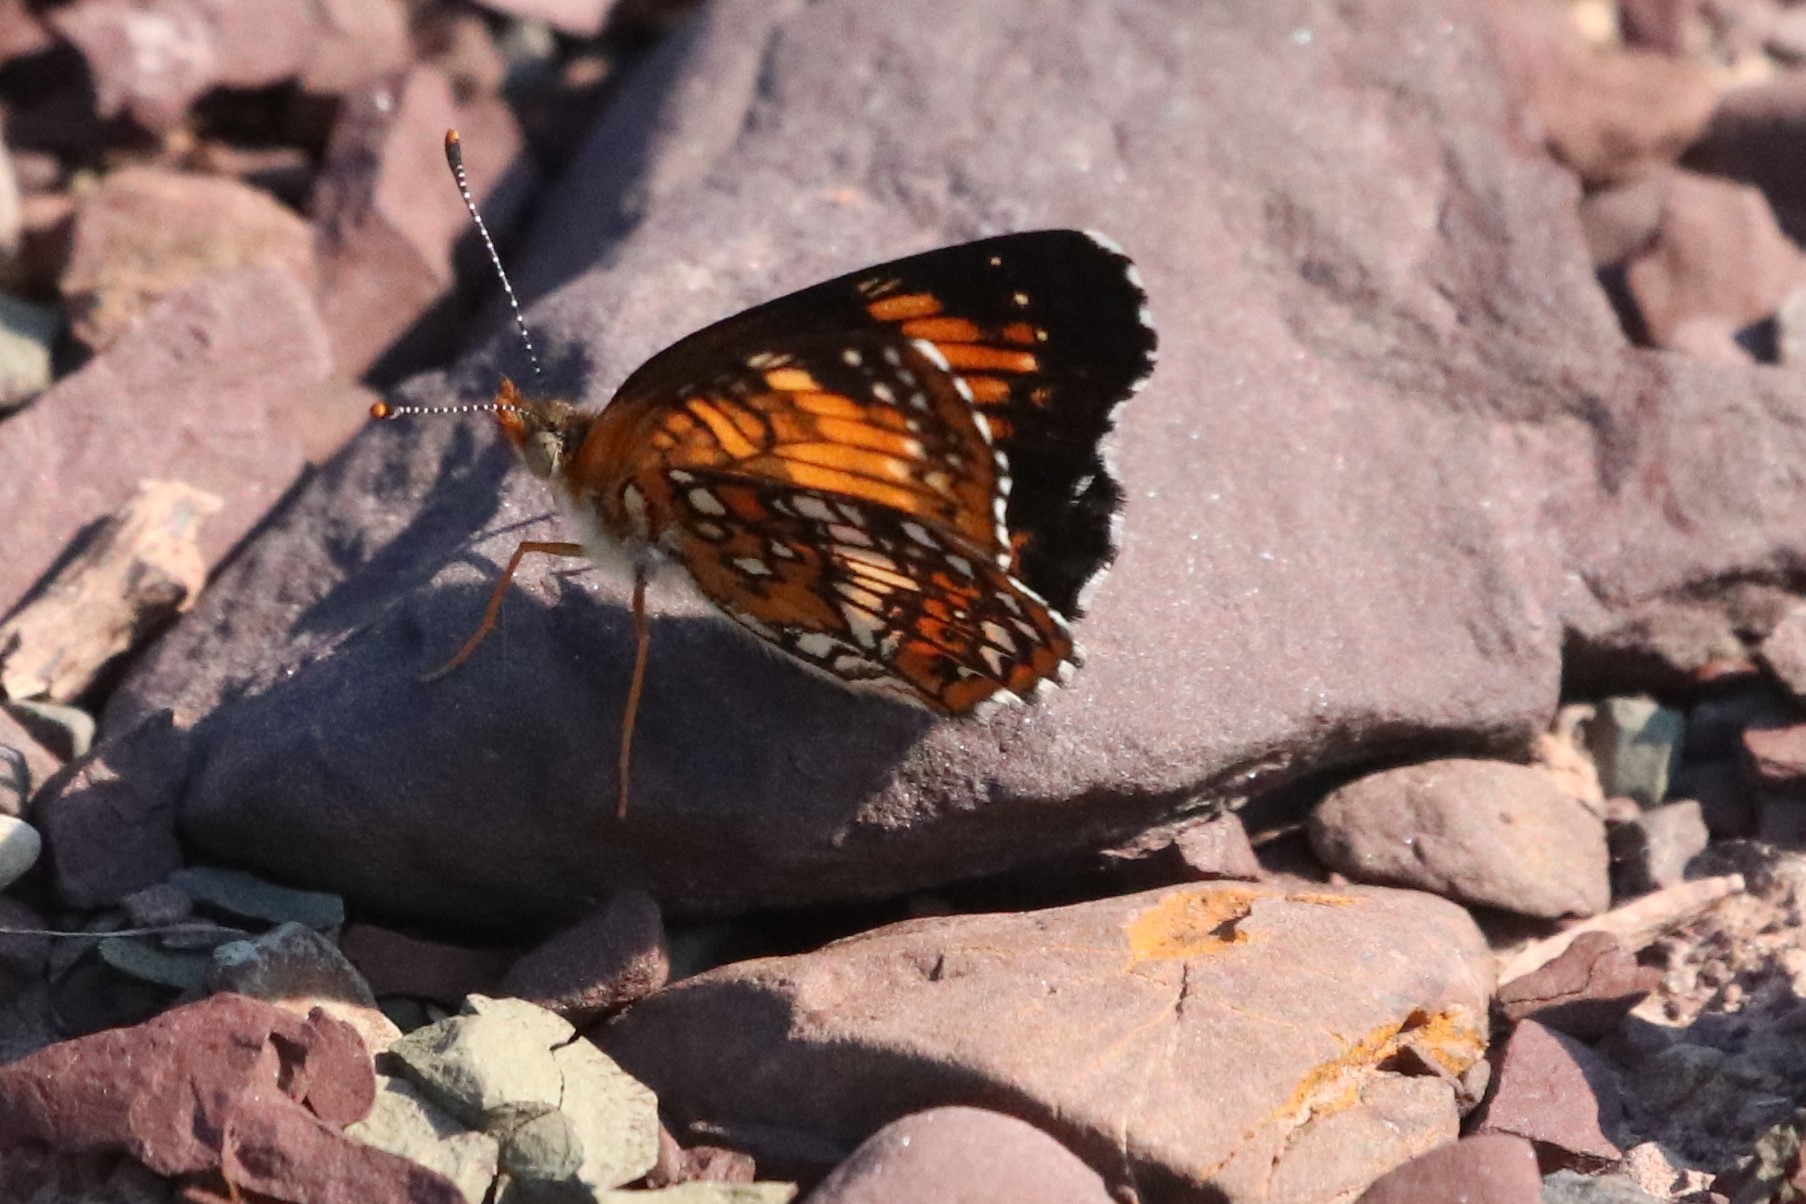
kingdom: Animalia
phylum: Arthropoda
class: Insecta
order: Lepidoptera
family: Nymphalidae
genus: Chlosyne
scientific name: Chlosyne harrisii
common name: Harris's checkerspot
